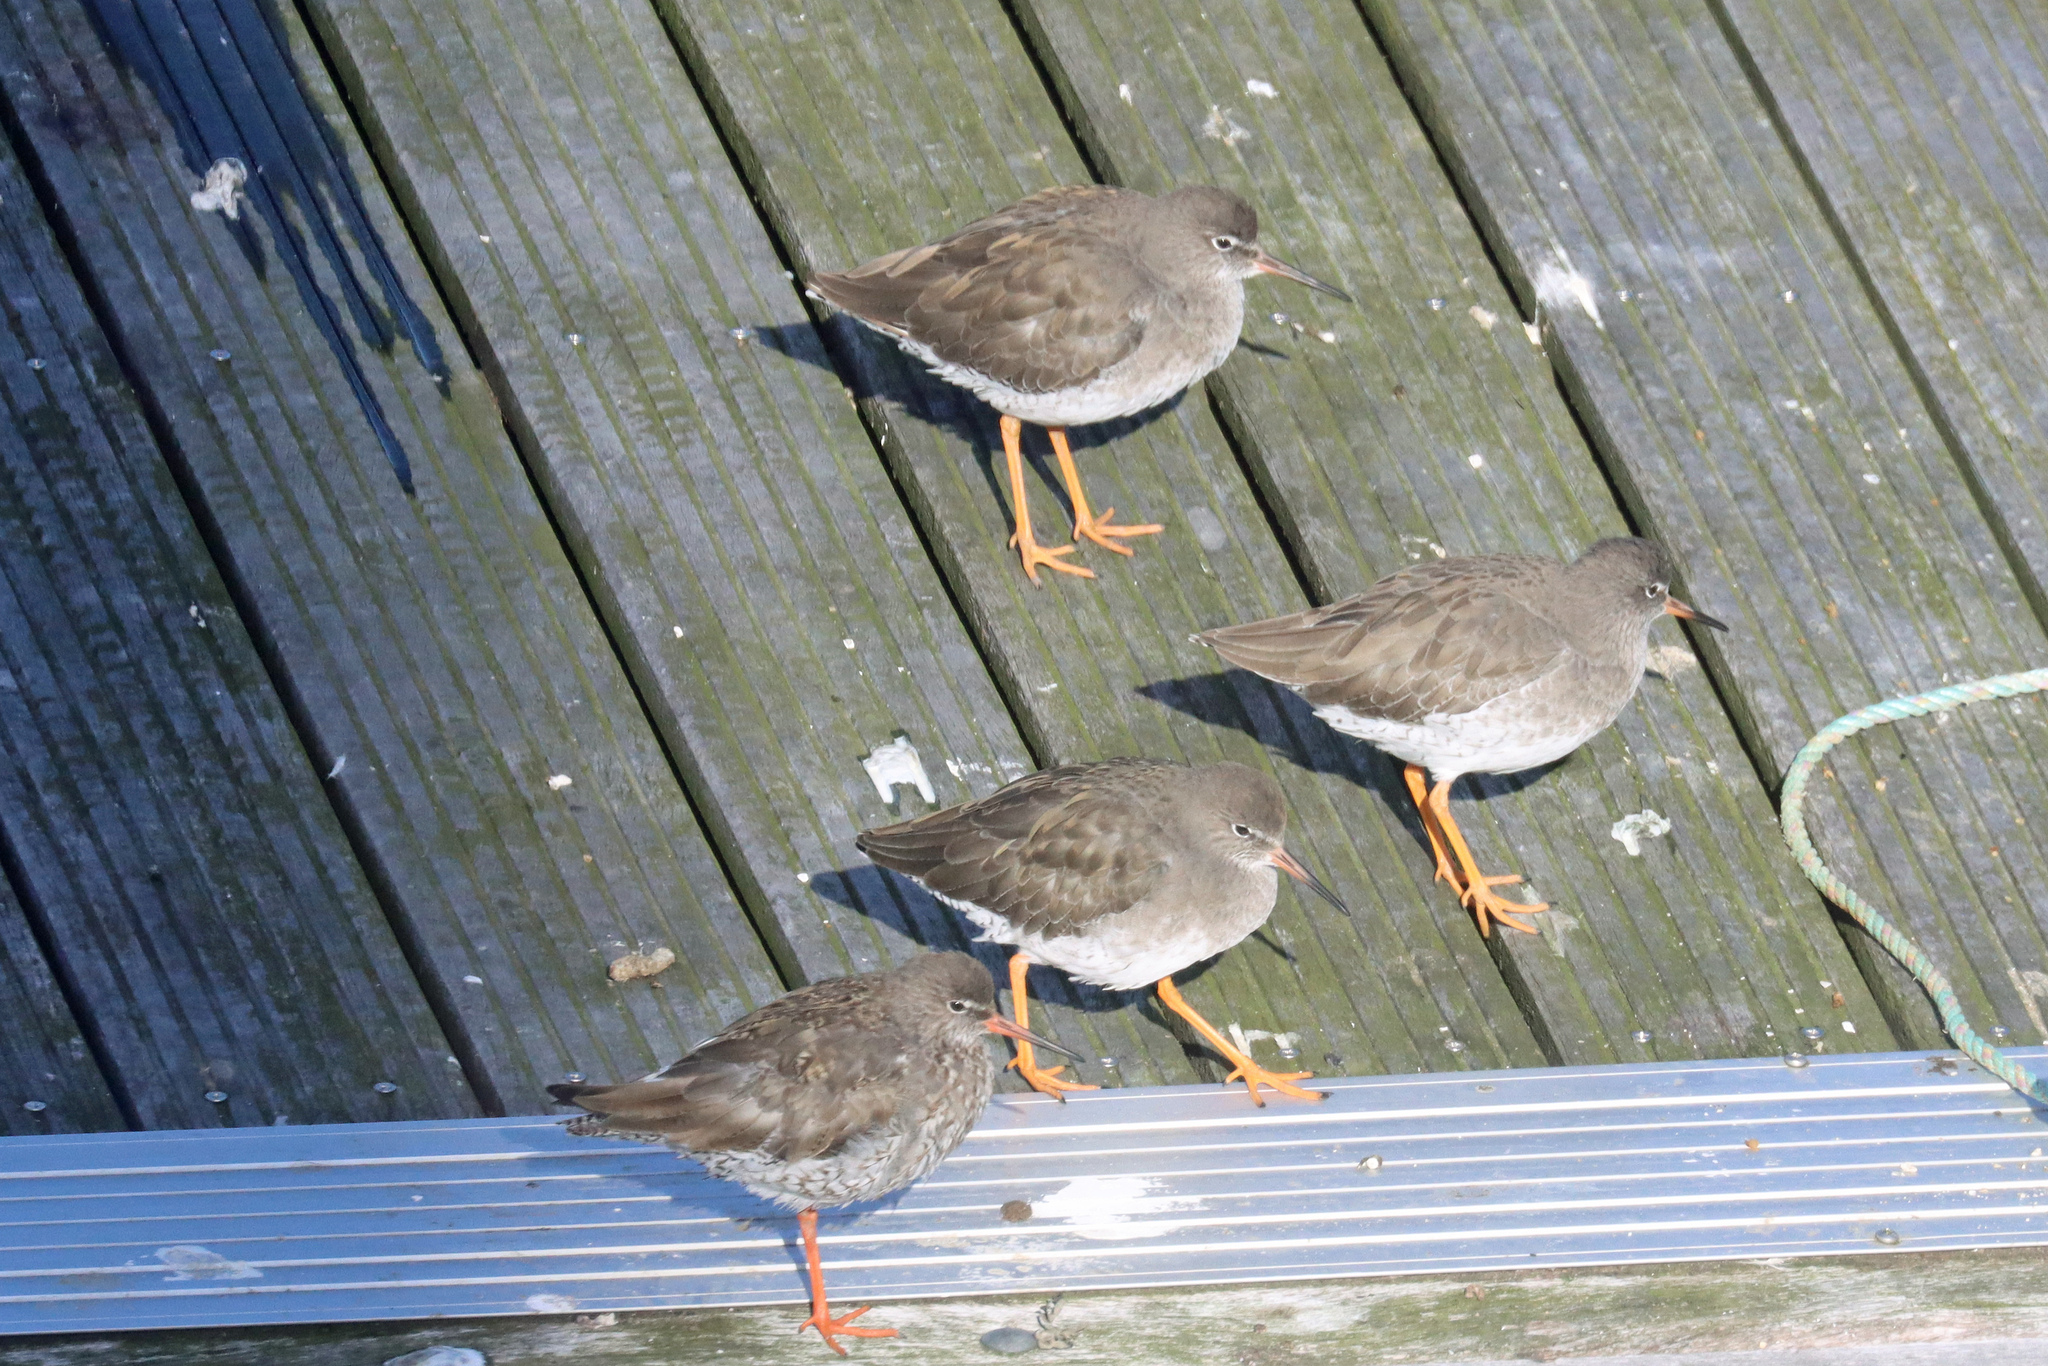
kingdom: Animalia
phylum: Chordata
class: Aves
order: Charadriiformes
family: Scolopacidae
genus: Tringa
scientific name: Tringa totanus
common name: Common redshank
